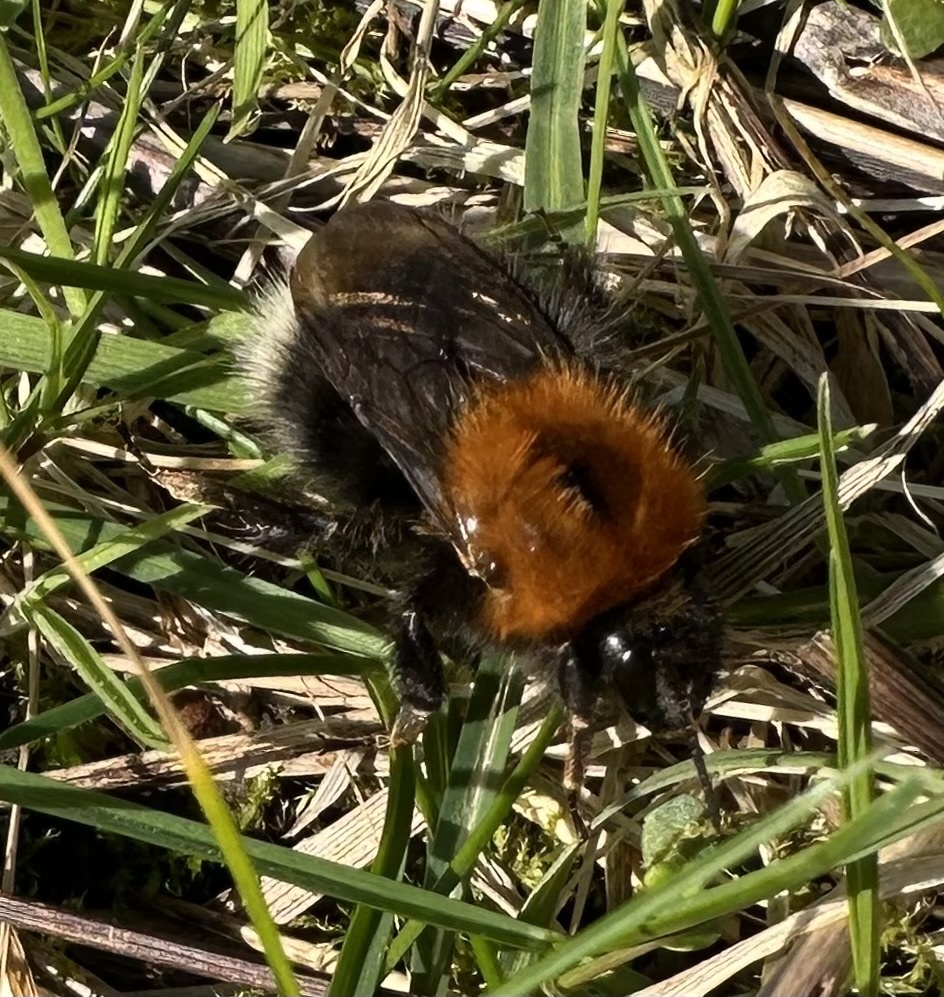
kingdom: Animalia
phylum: Arthropoda
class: Insecta
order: Hymenoptera
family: Apidae
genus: Bombus
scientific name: Bombus hypnorum
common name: New garden bumblebee
